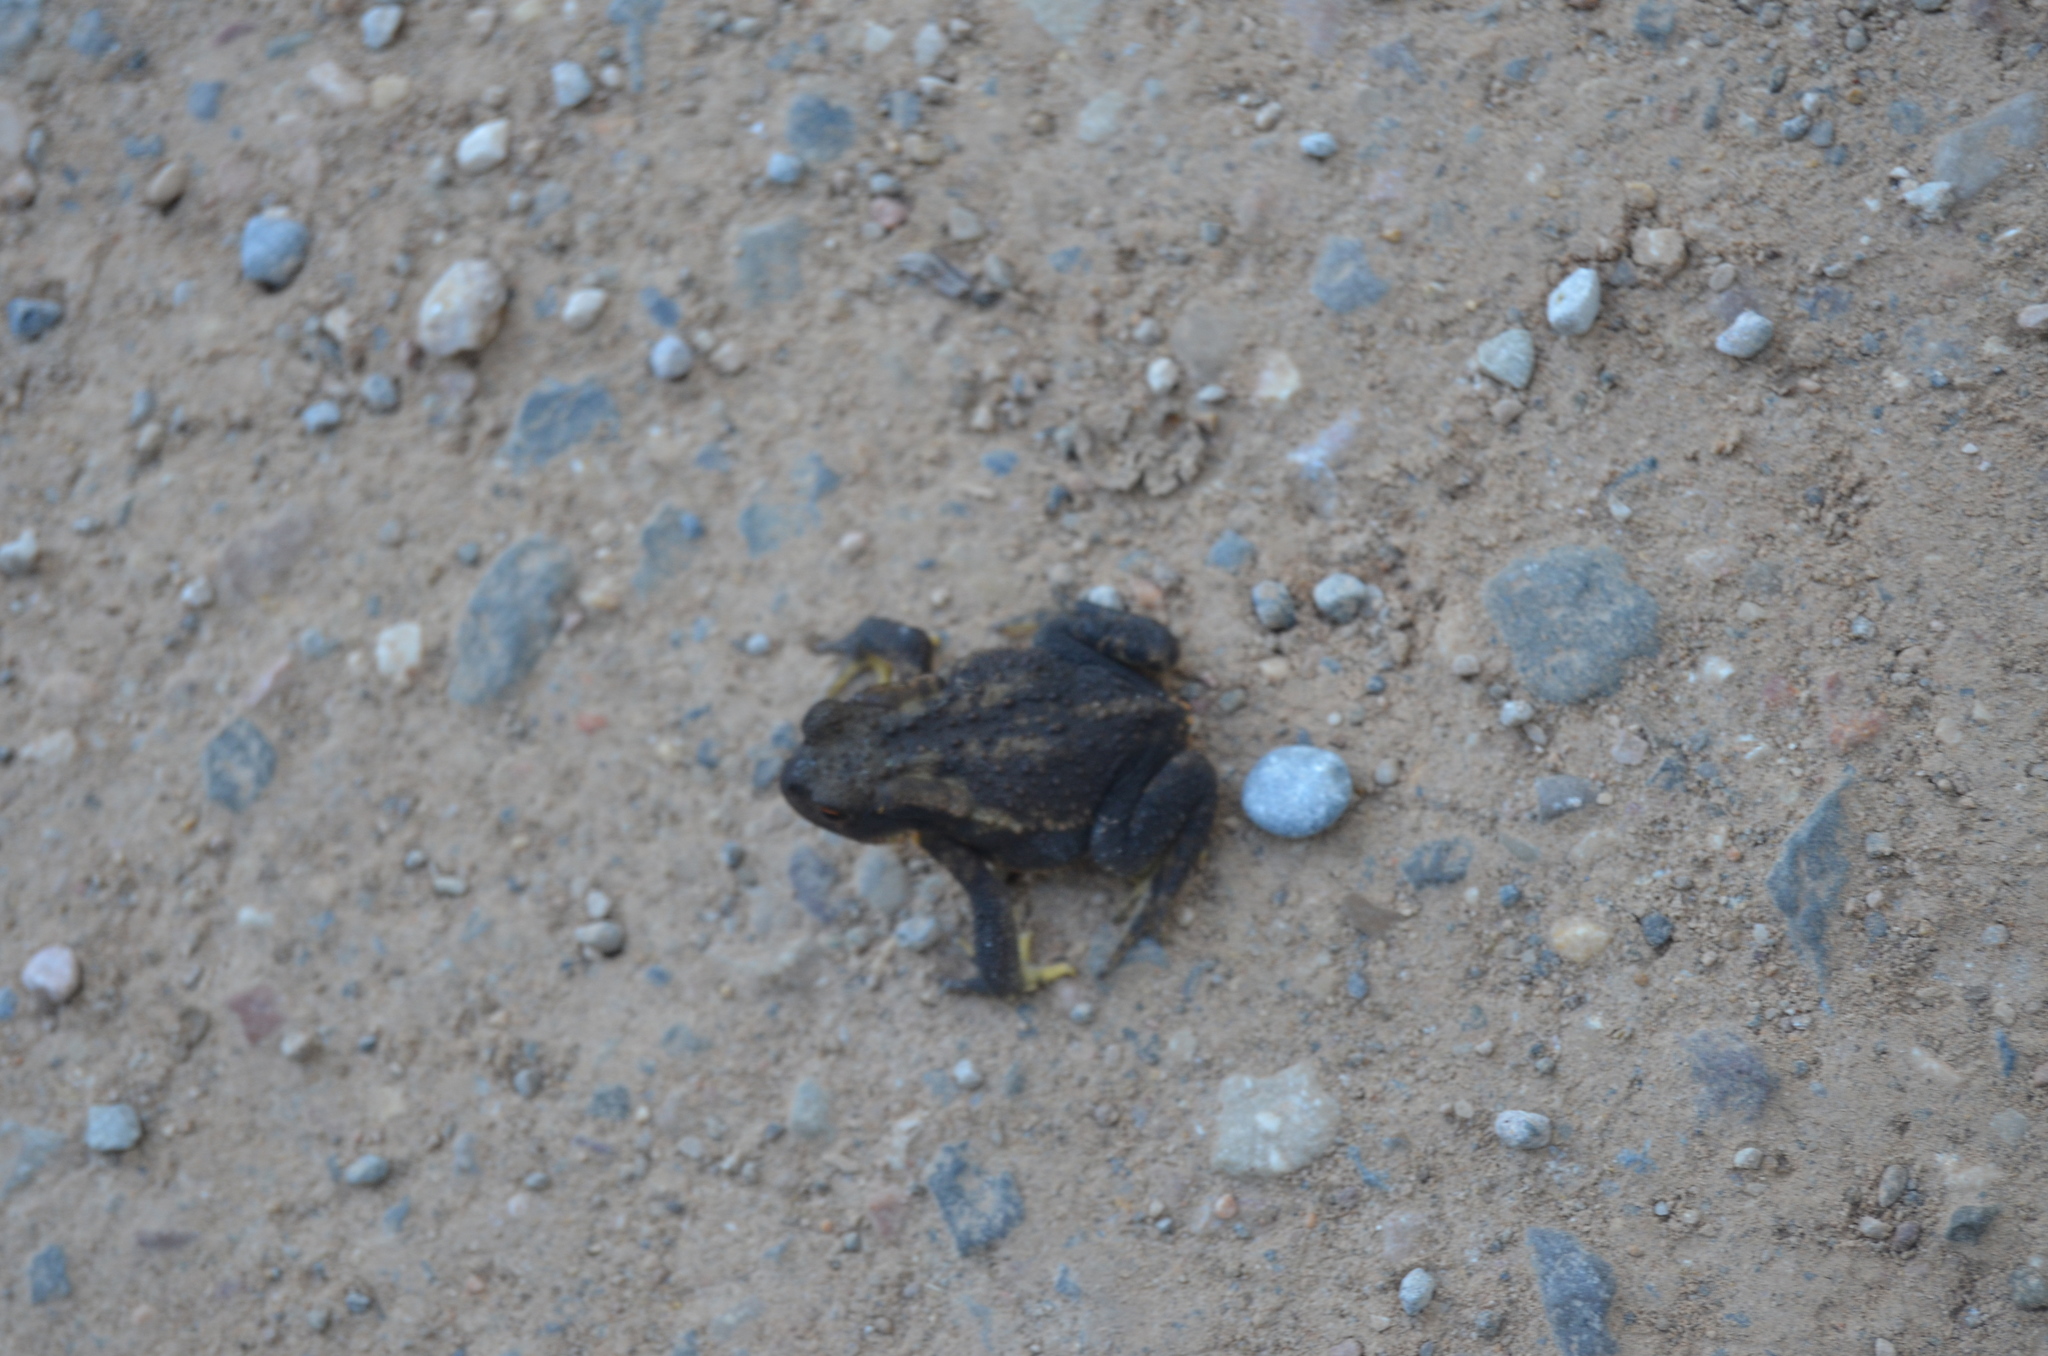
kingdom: Animalia
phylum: Chordata
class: Amphibia
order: Anura
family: Bufonidae
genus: Bufo
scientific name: Bufo spinosus
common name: Western common toad
